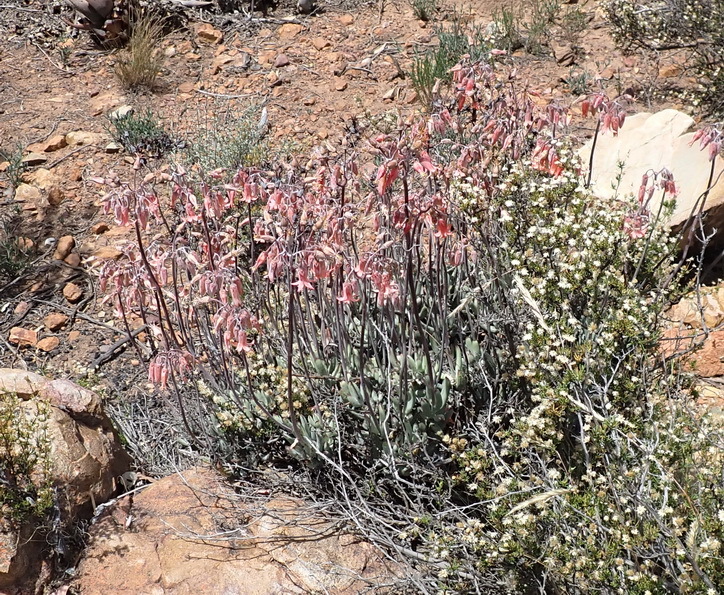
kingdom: Plantae
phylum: Tracheophyta
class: Magnoliopsida
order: Saxifragales
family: Crassulaceae
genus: Cotyledon
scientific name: Cotyledon orbiculata
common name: Pig's ear
